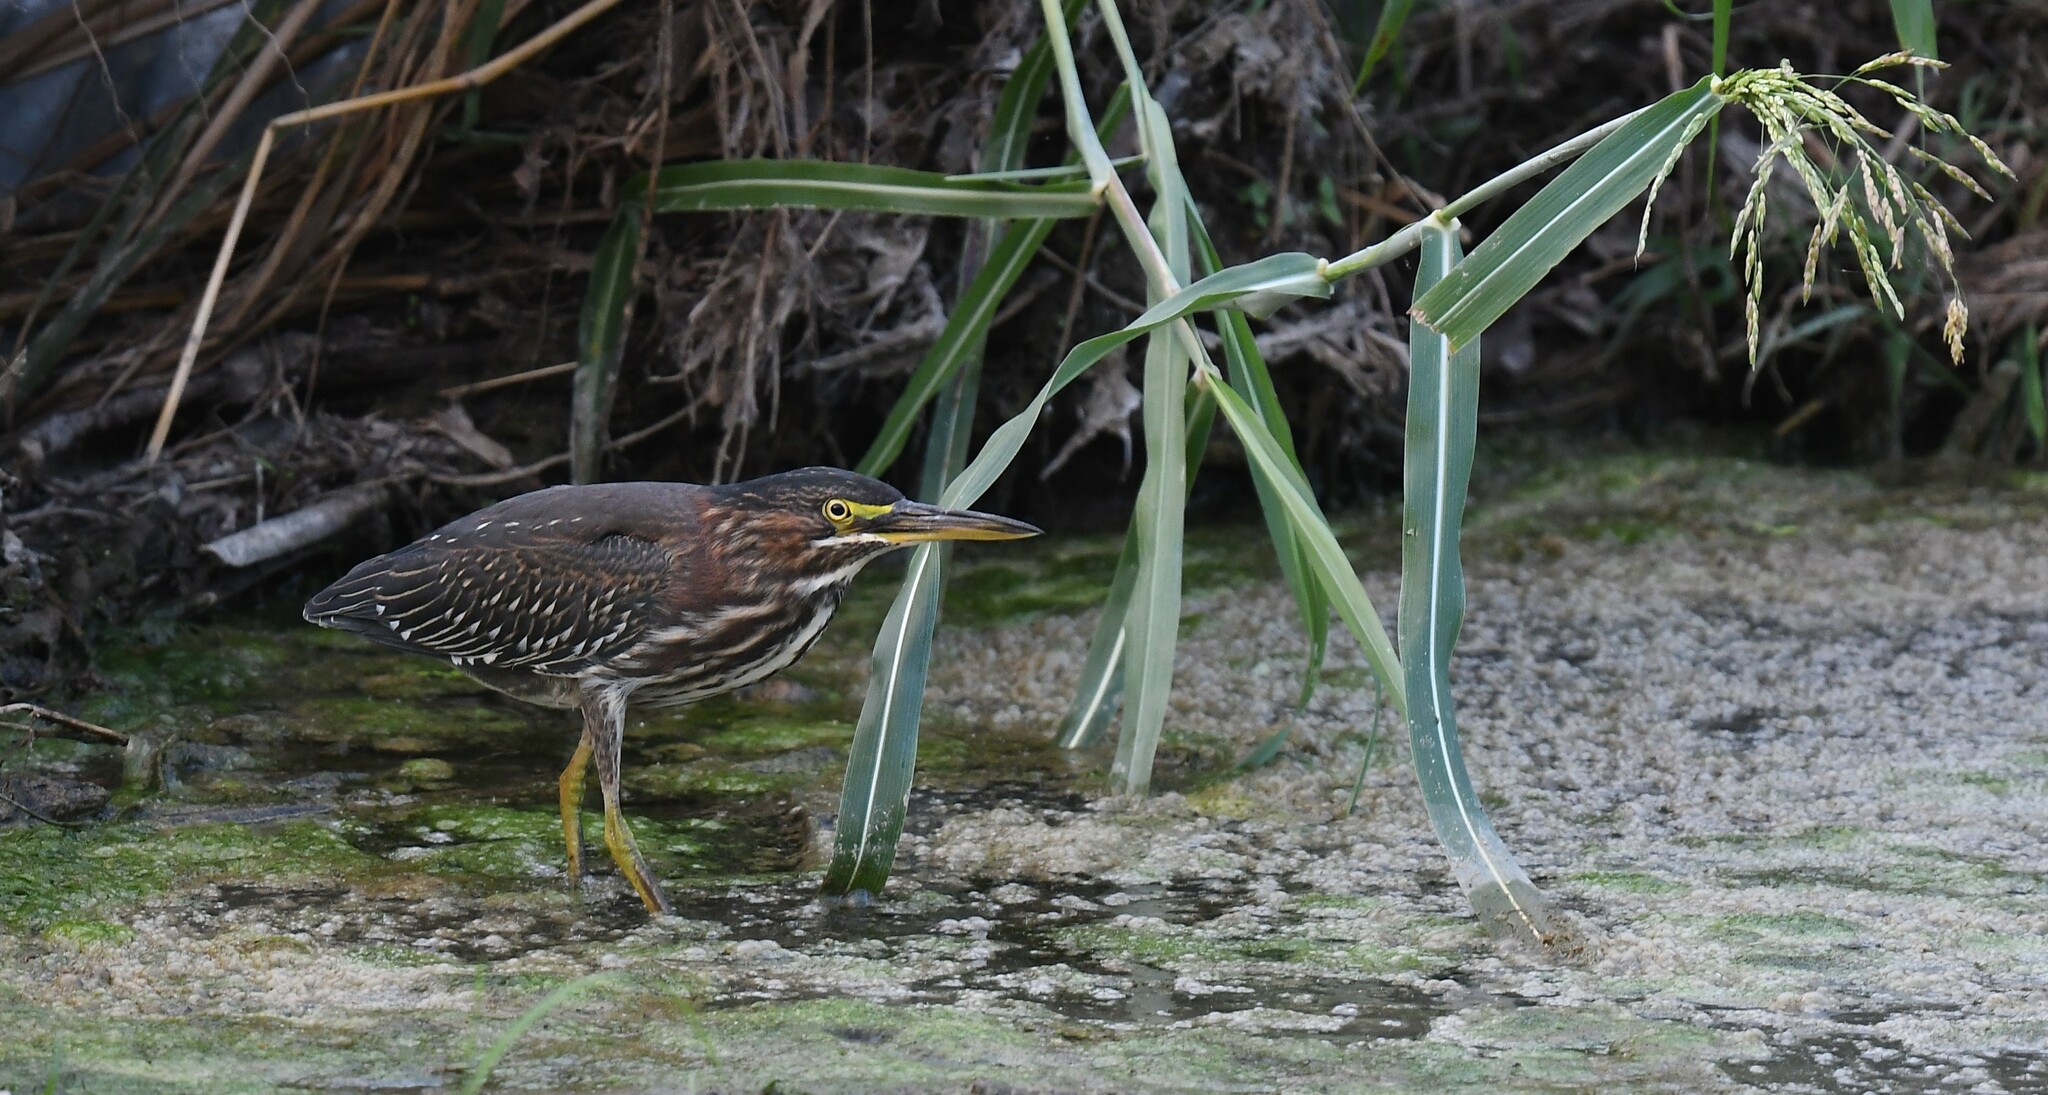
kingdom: Animalia
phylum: Chordata
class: Aves
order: Pelecaniformes
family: Ardeidae
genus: Butorides
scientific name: Butorides virescens
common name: Green heron
